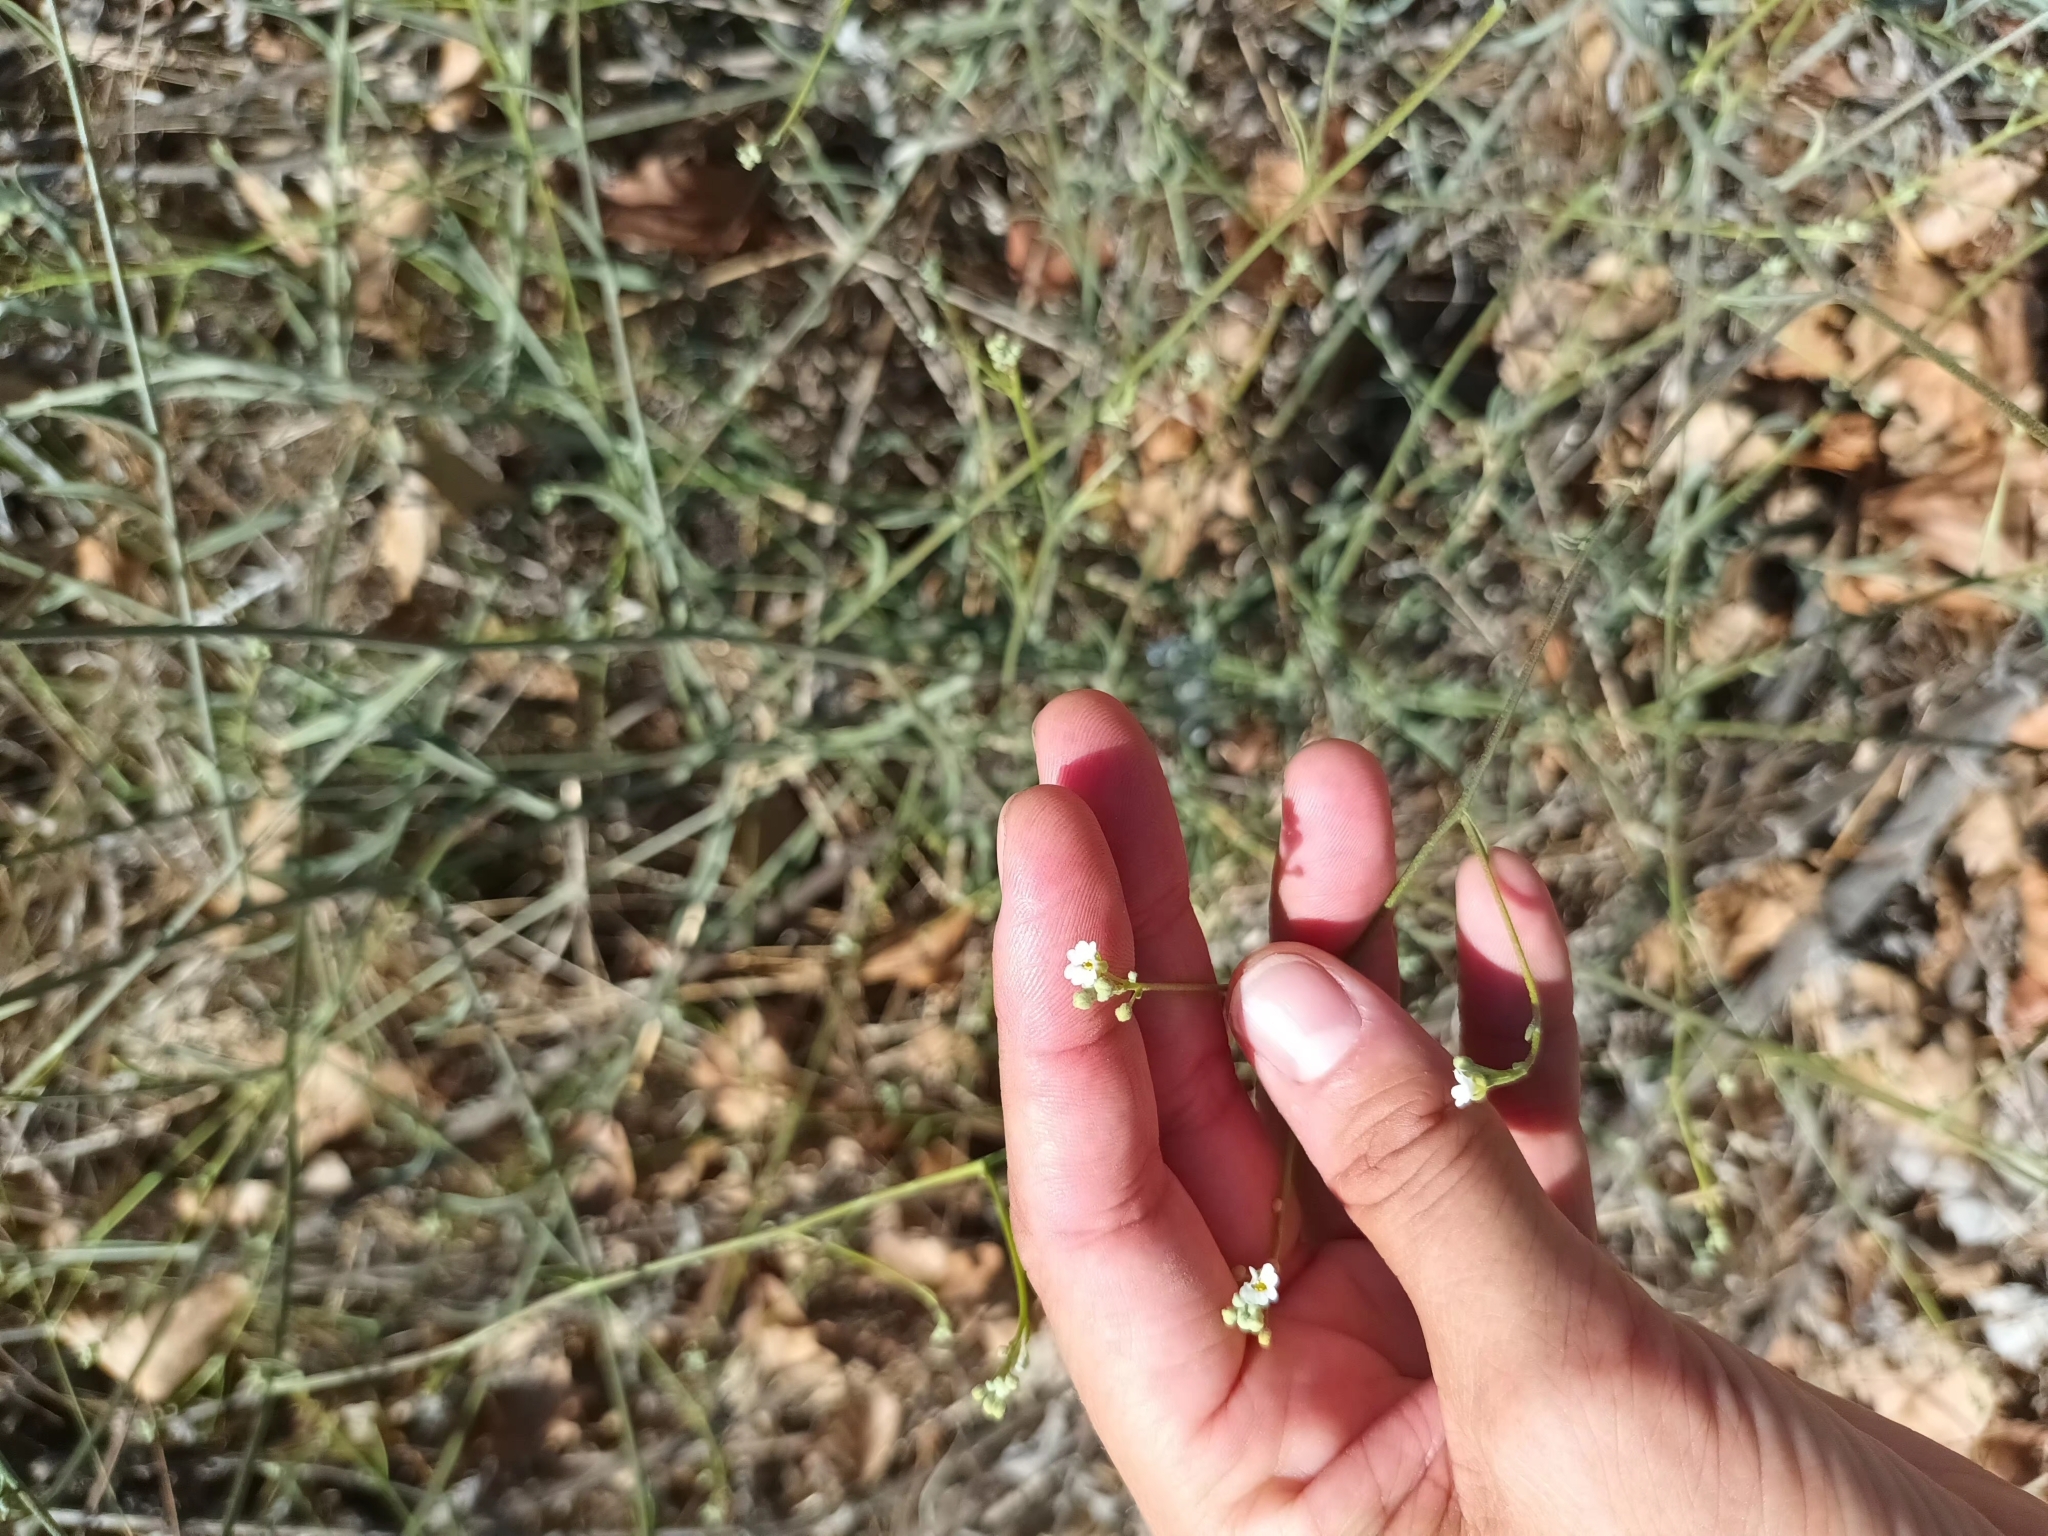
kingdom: Plantae
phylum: Tracheophyta
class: Magnoliopsida
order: Brassicales
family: Brassicaceae
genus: Lepidotrichum
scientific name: Lepidotrichum uechtritzianum
